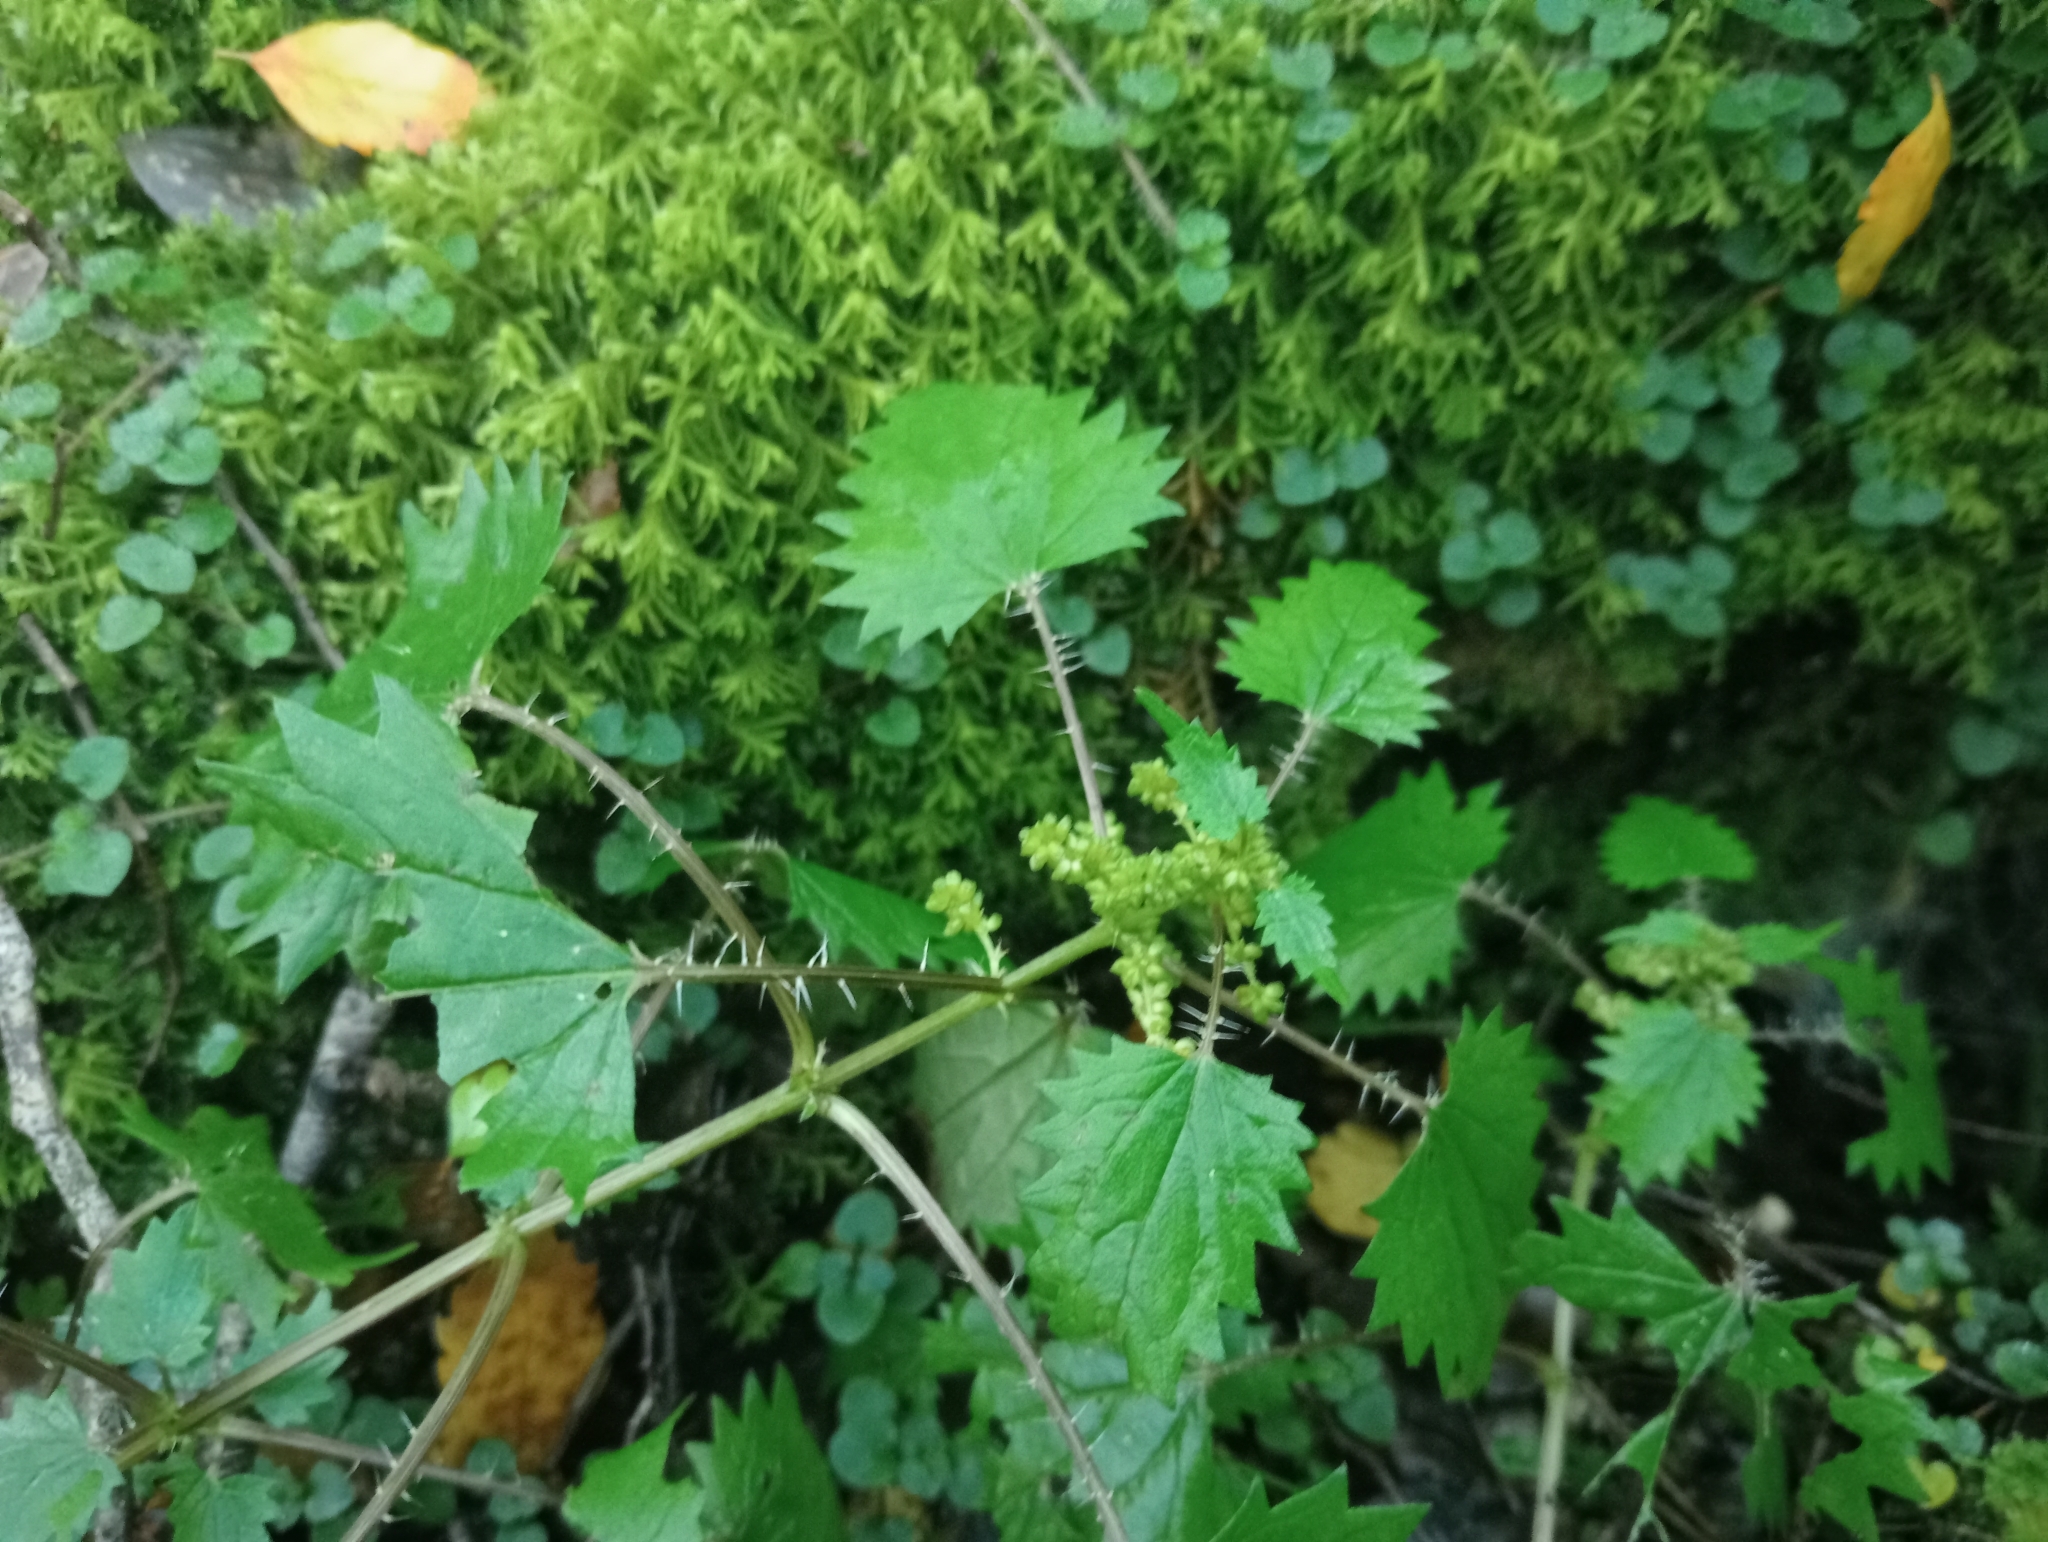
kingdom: Plantae
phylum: Tracheophyta
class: Magnoliopsida
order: Rosales
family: Urticaceae
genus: Urtica
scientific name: Urtica sykesii
